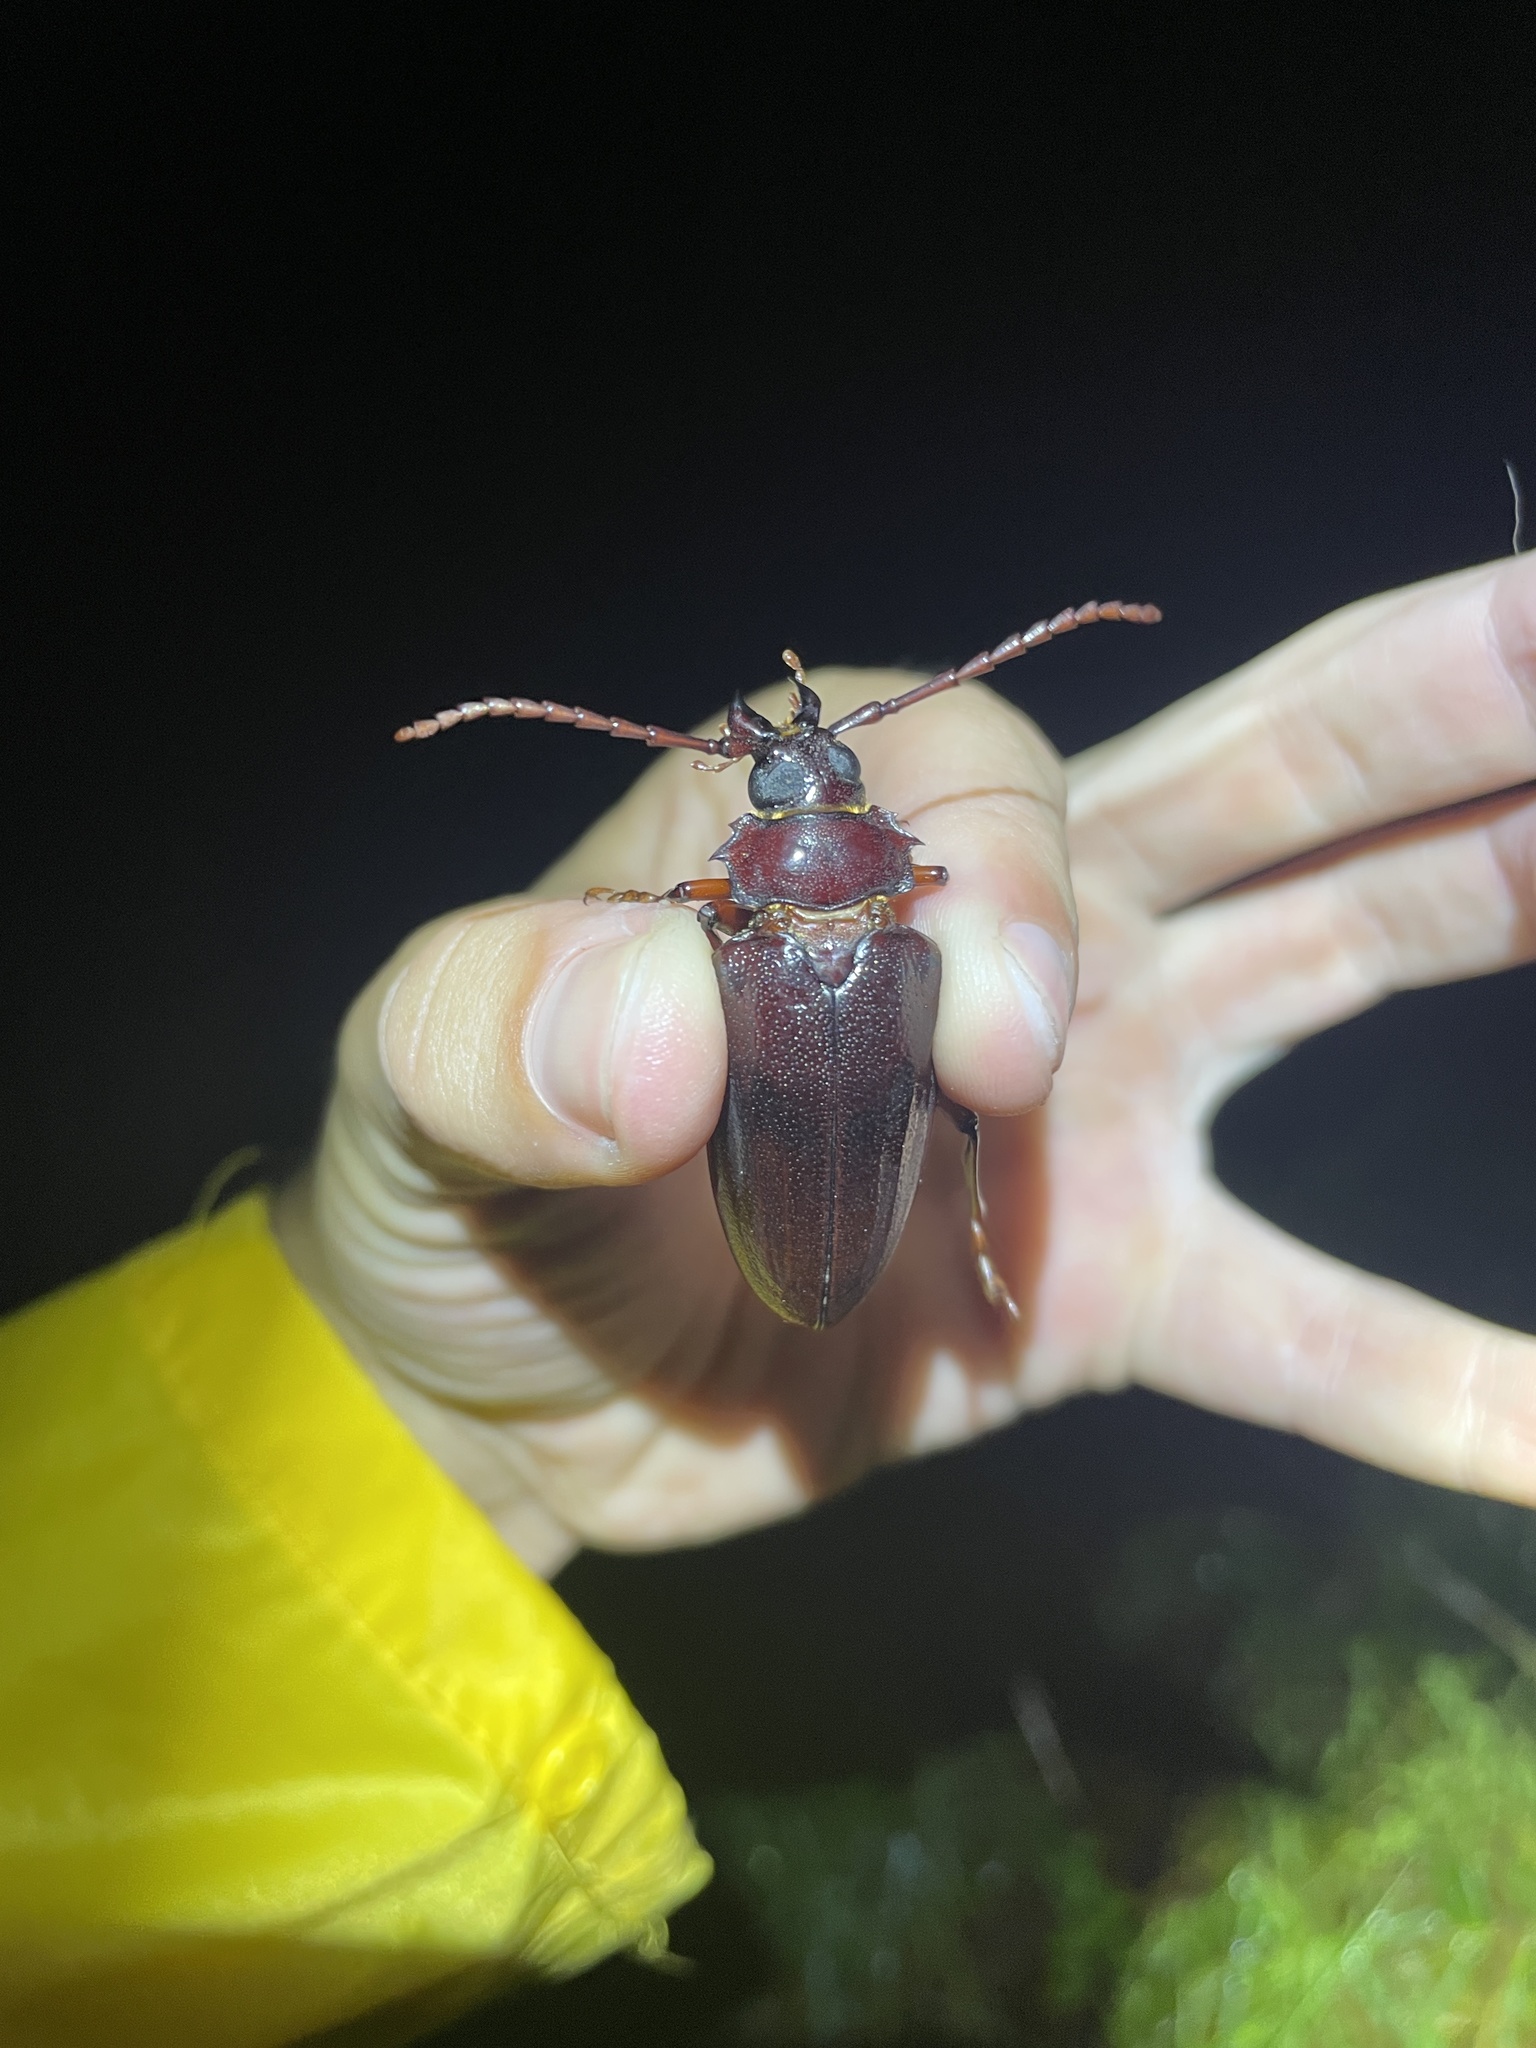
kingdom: Animalia
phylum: Arthropoda
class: Insecta
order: Coleoptera
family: Cerambycidae
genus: Prionus
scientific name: Prionus pocularis
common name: Tooth-necked longhorn beetle
